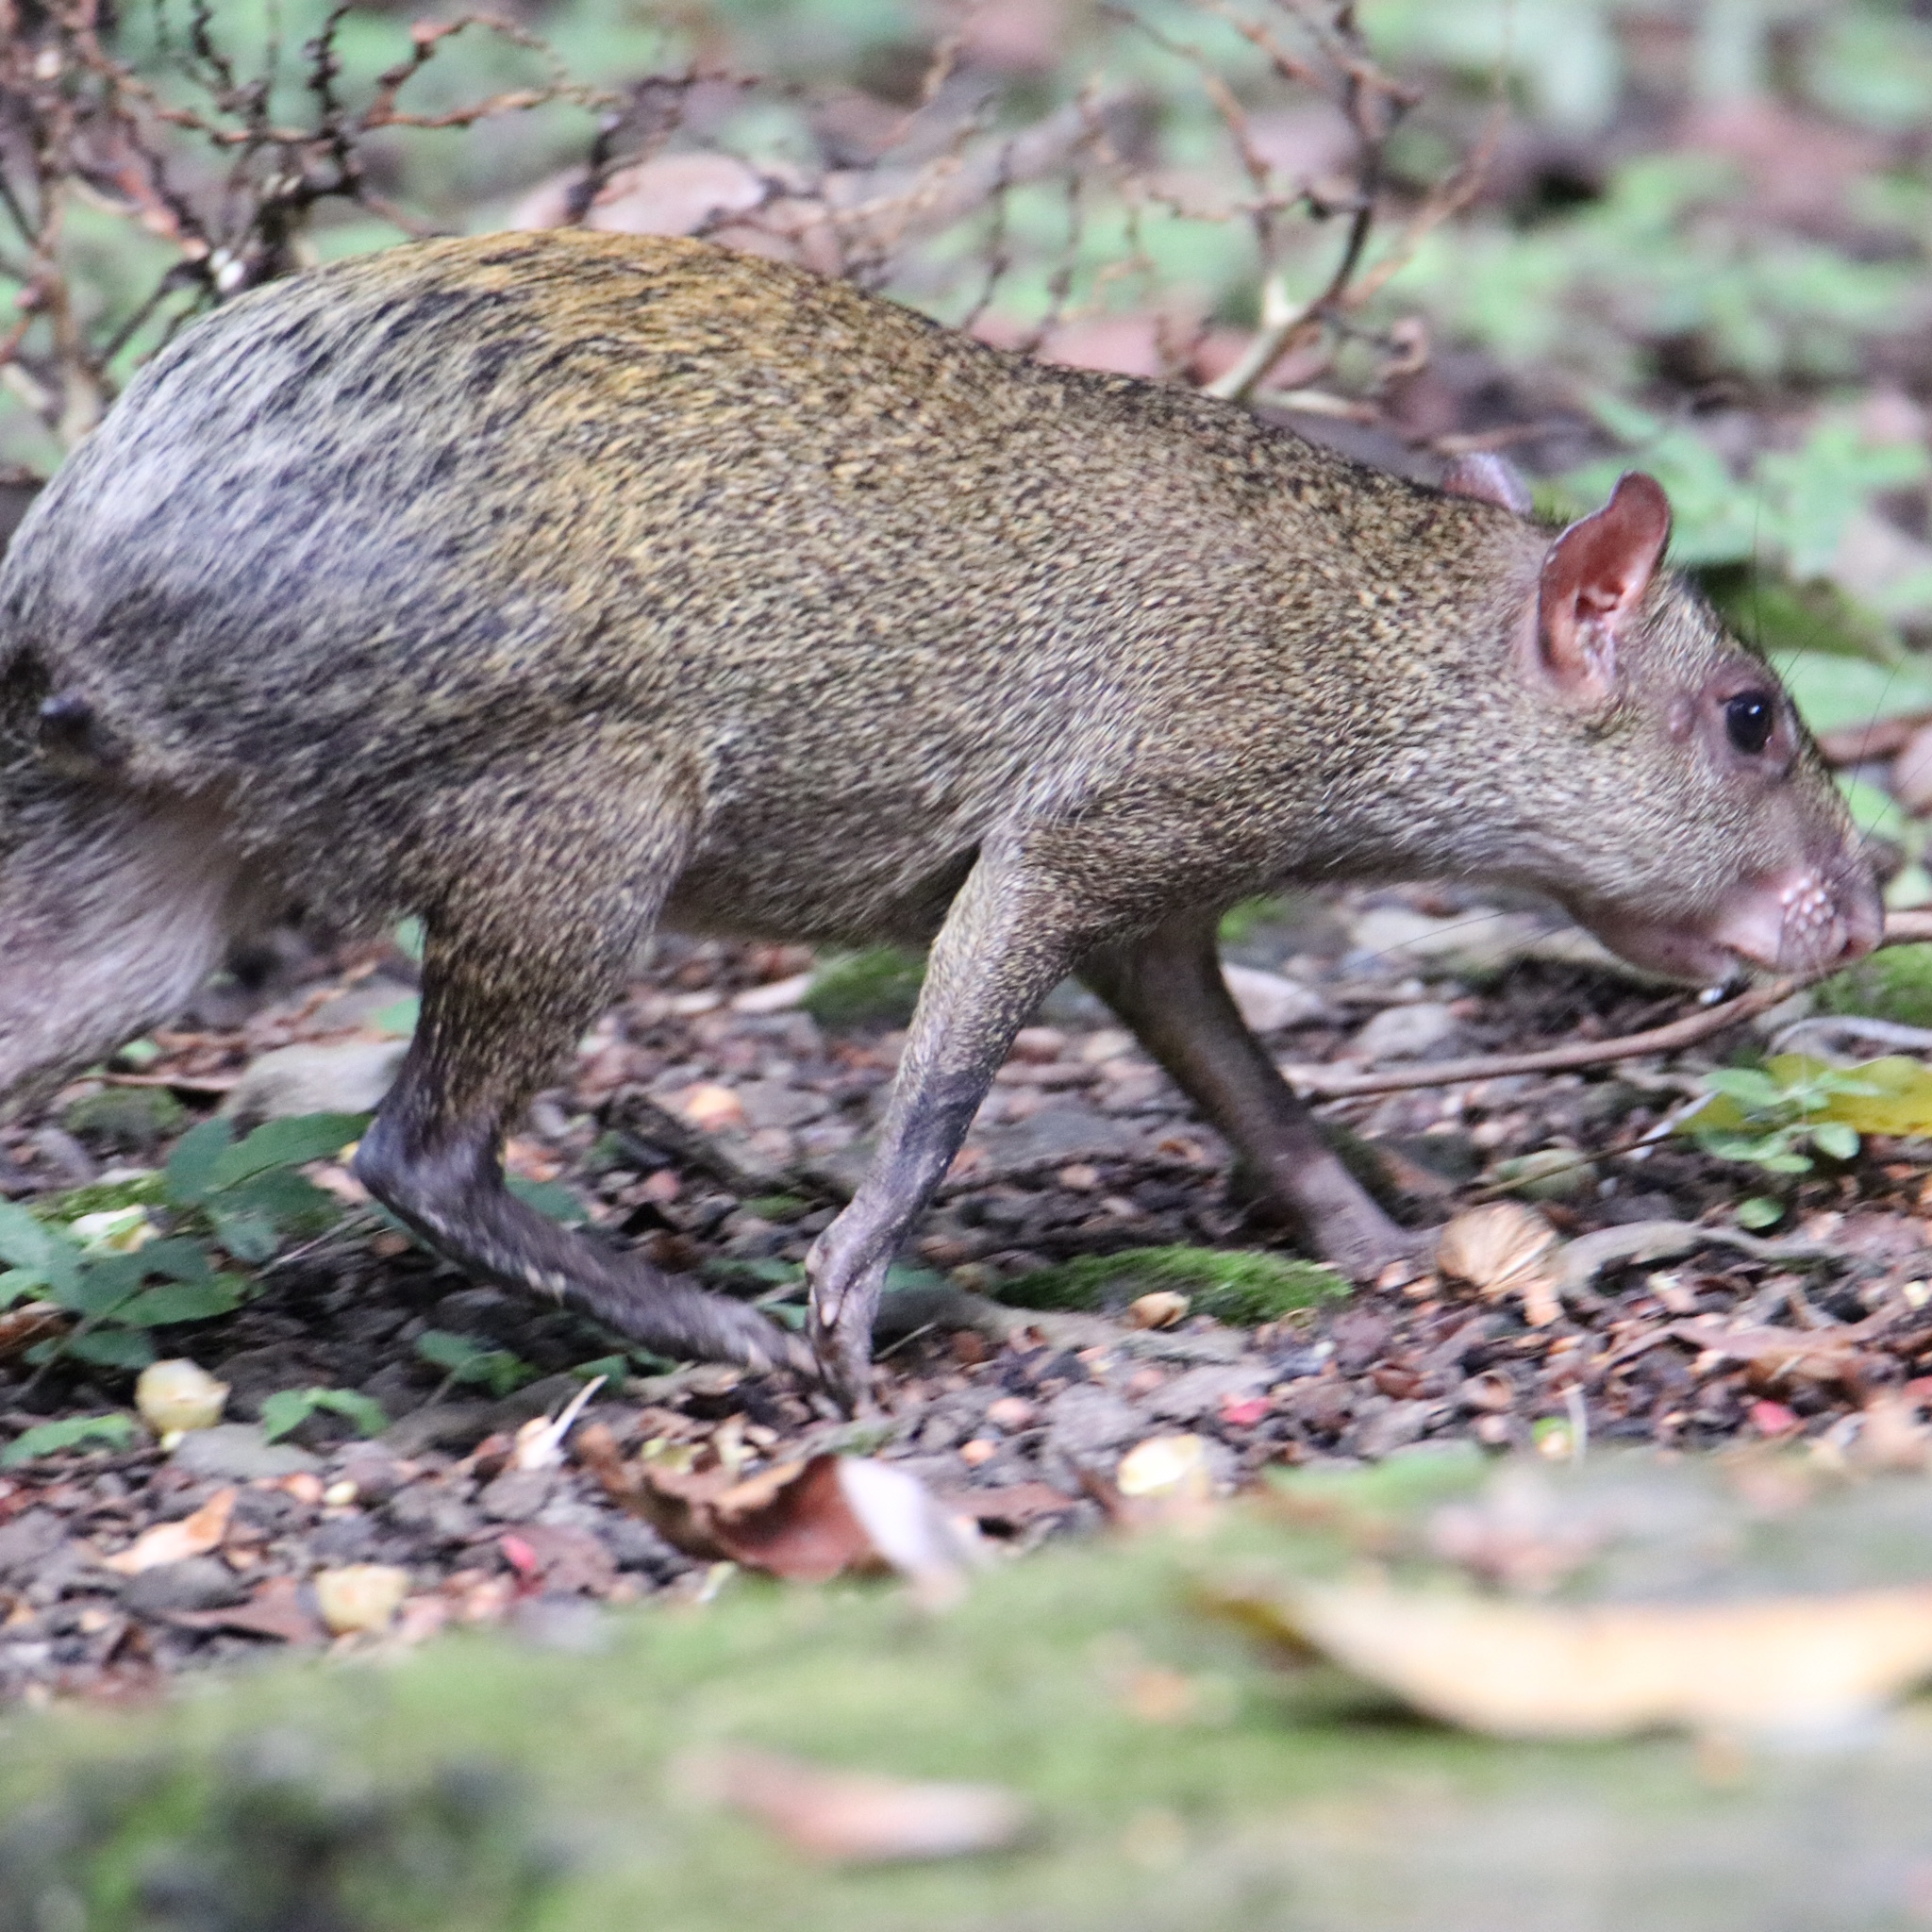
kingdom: Animalia
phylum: Chordata
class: Mammalia
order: Rodentia
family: Dasyproctidae
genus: Dasyprocta
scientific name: Dasyprocta punctata
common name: Central american agouti
